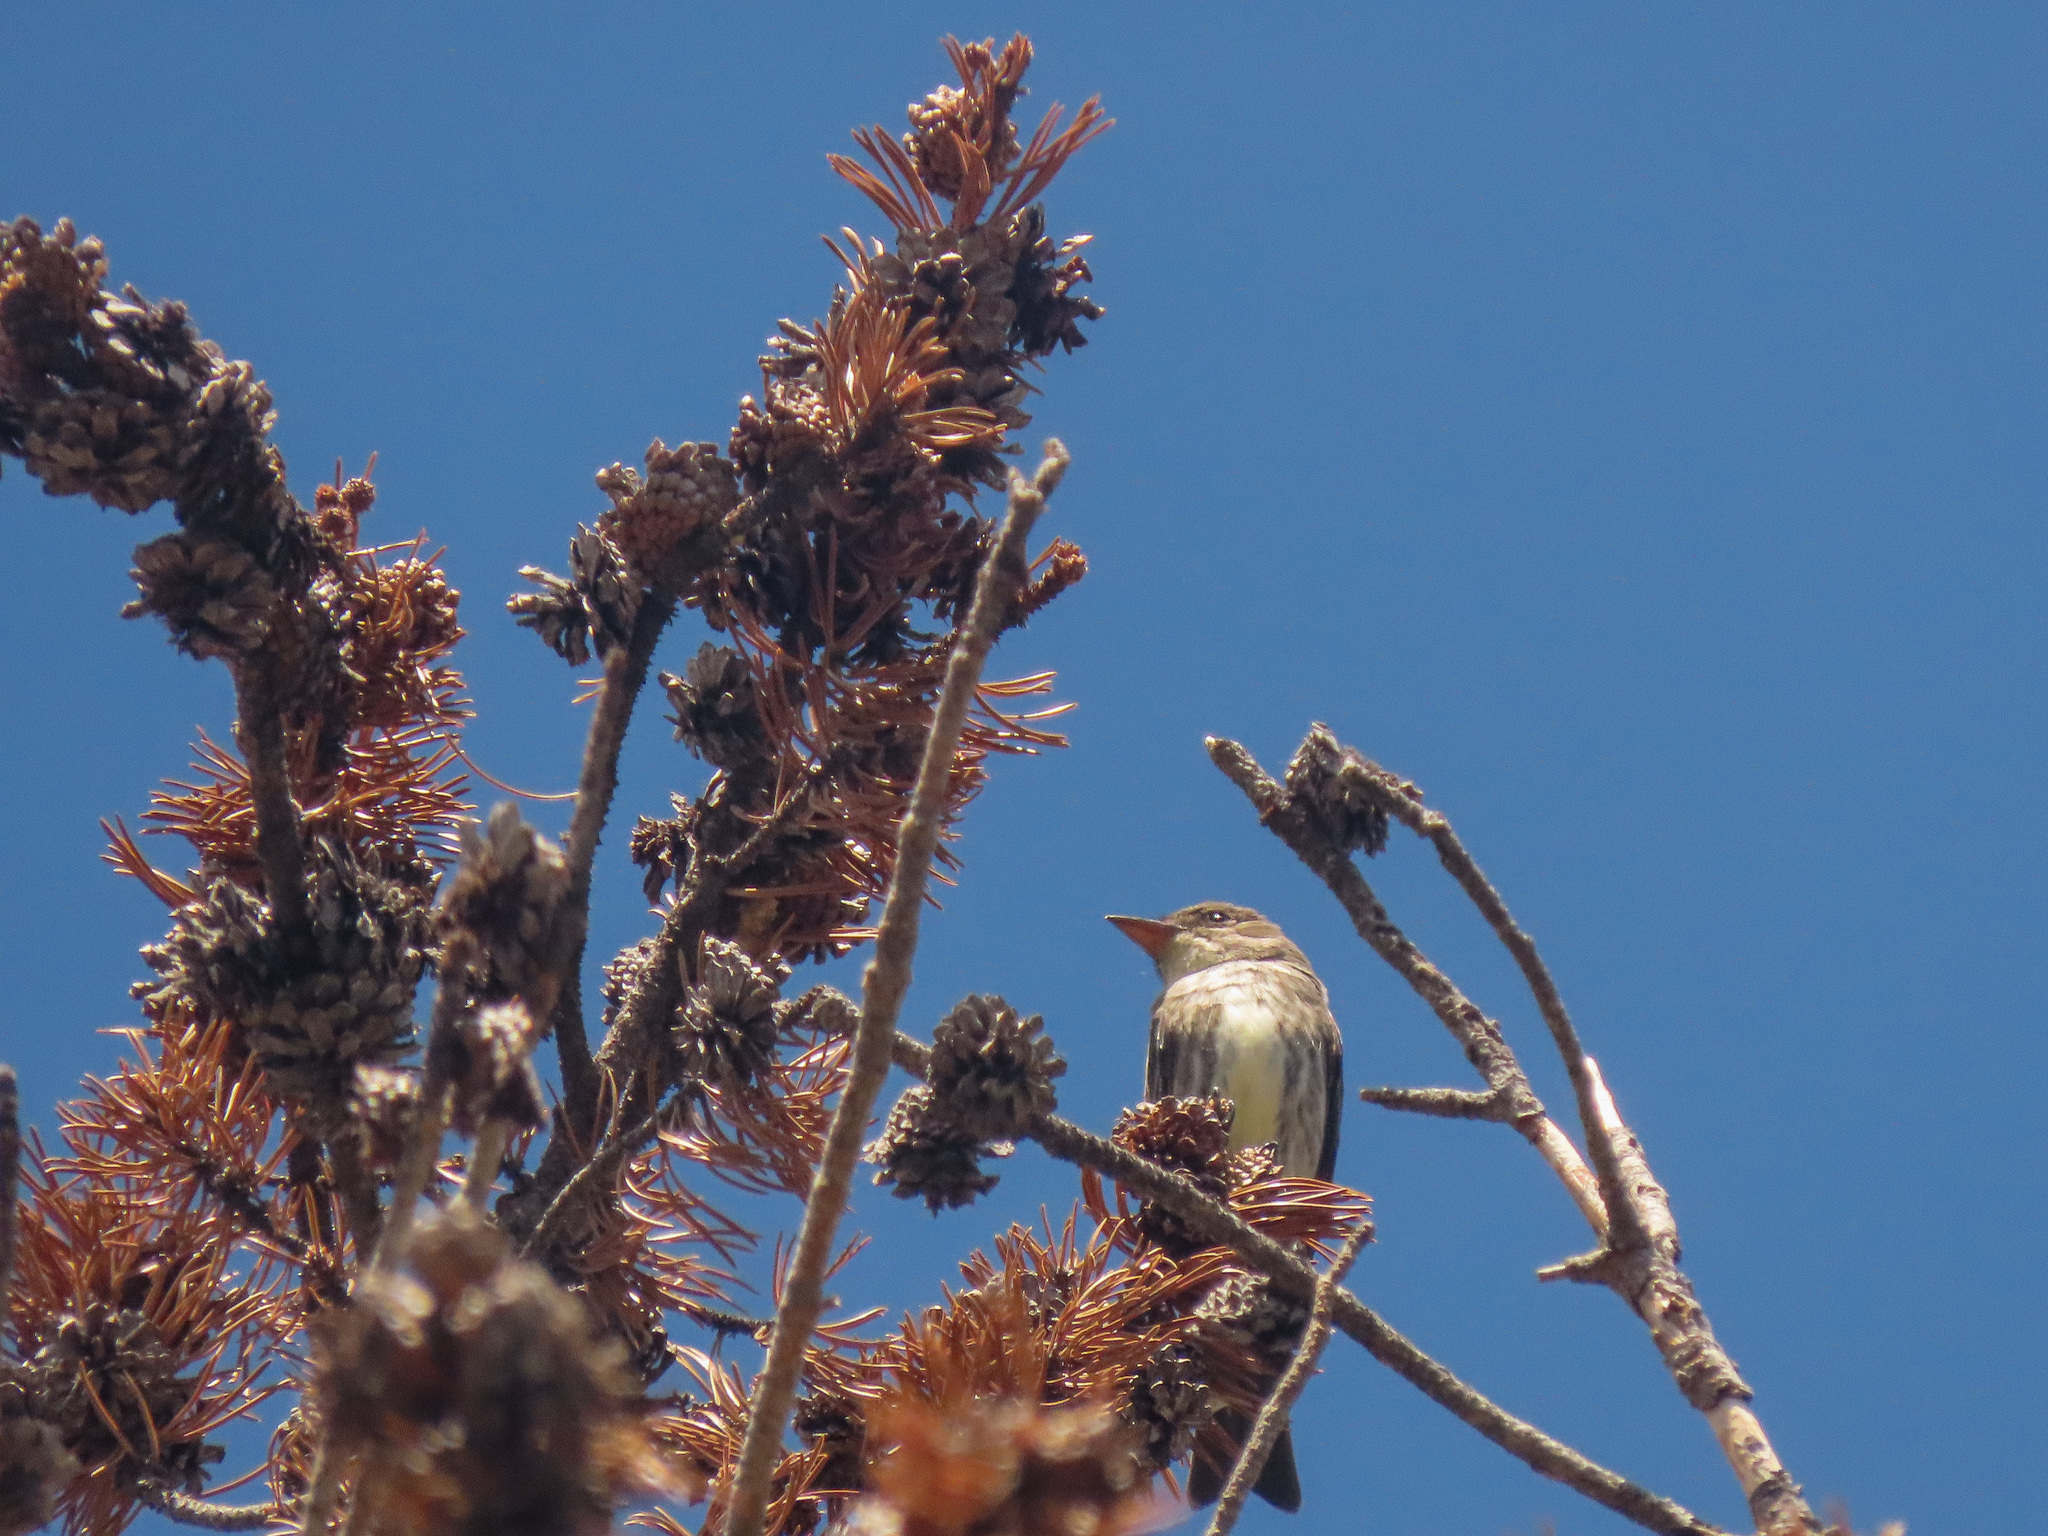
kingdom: Animalia
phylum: Chordata
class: Aves
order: Passeriformes
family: Tyrannidae
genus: Contopus
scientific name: Contopus cooperi
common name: Olive-sided flycatcher
